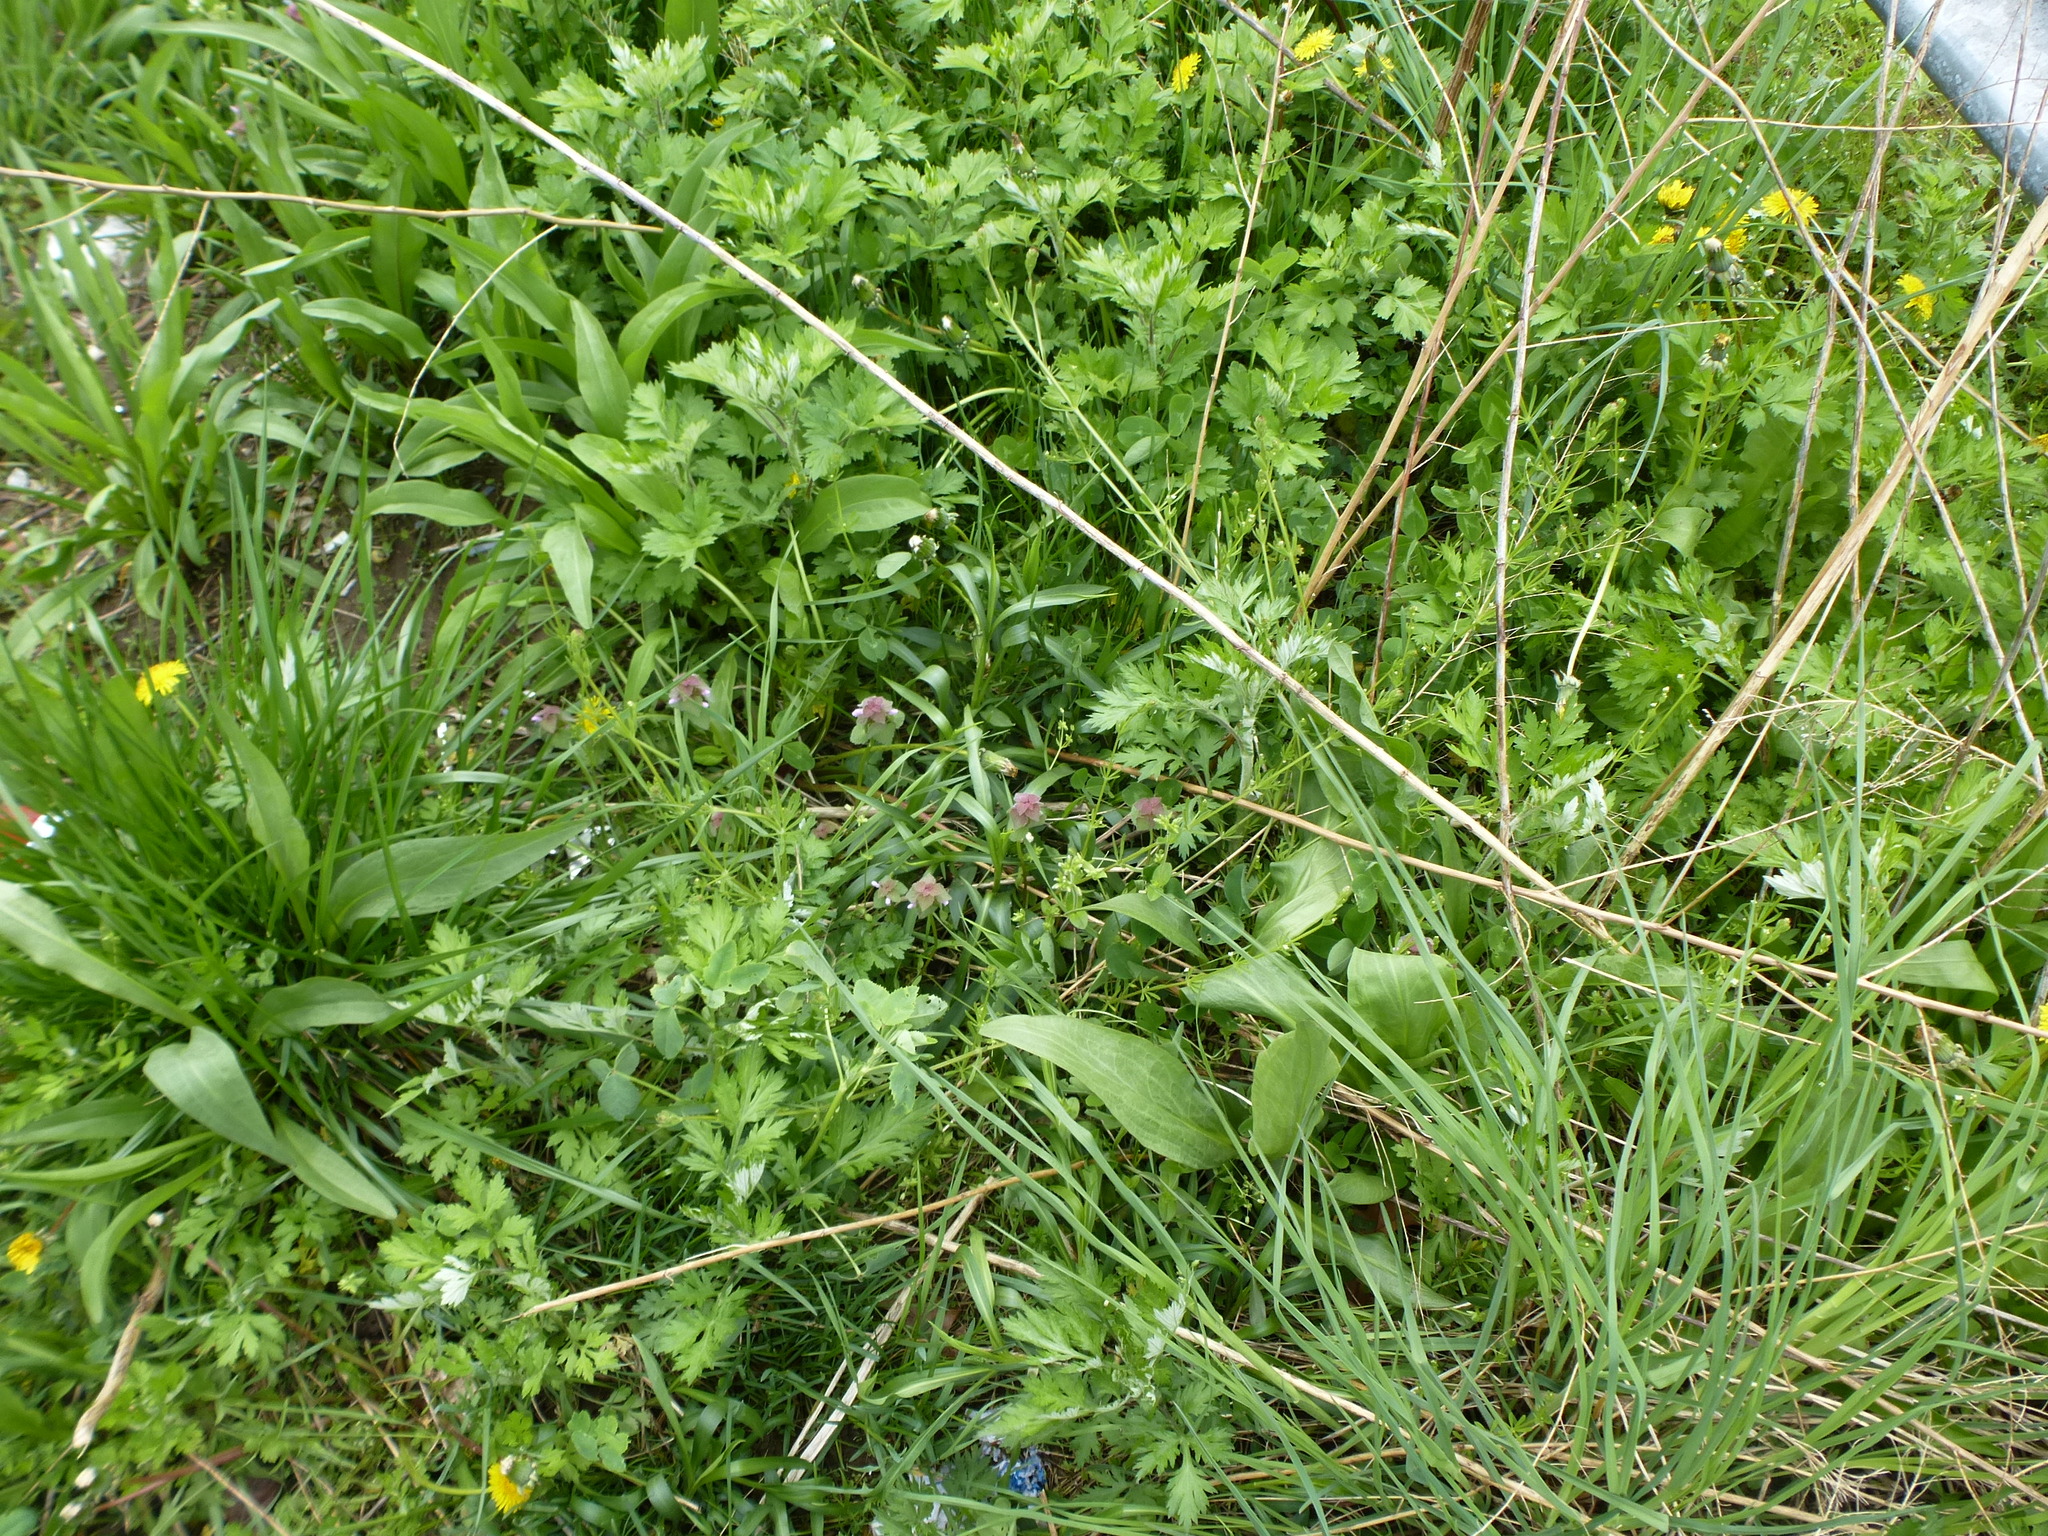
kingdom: Plantae
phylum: Tracheophyta
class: Magnoliopsida
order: Lamiales
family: Lamiaceae
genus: Lamium
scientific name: Lamium purpureum
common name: Red dead-nettle
